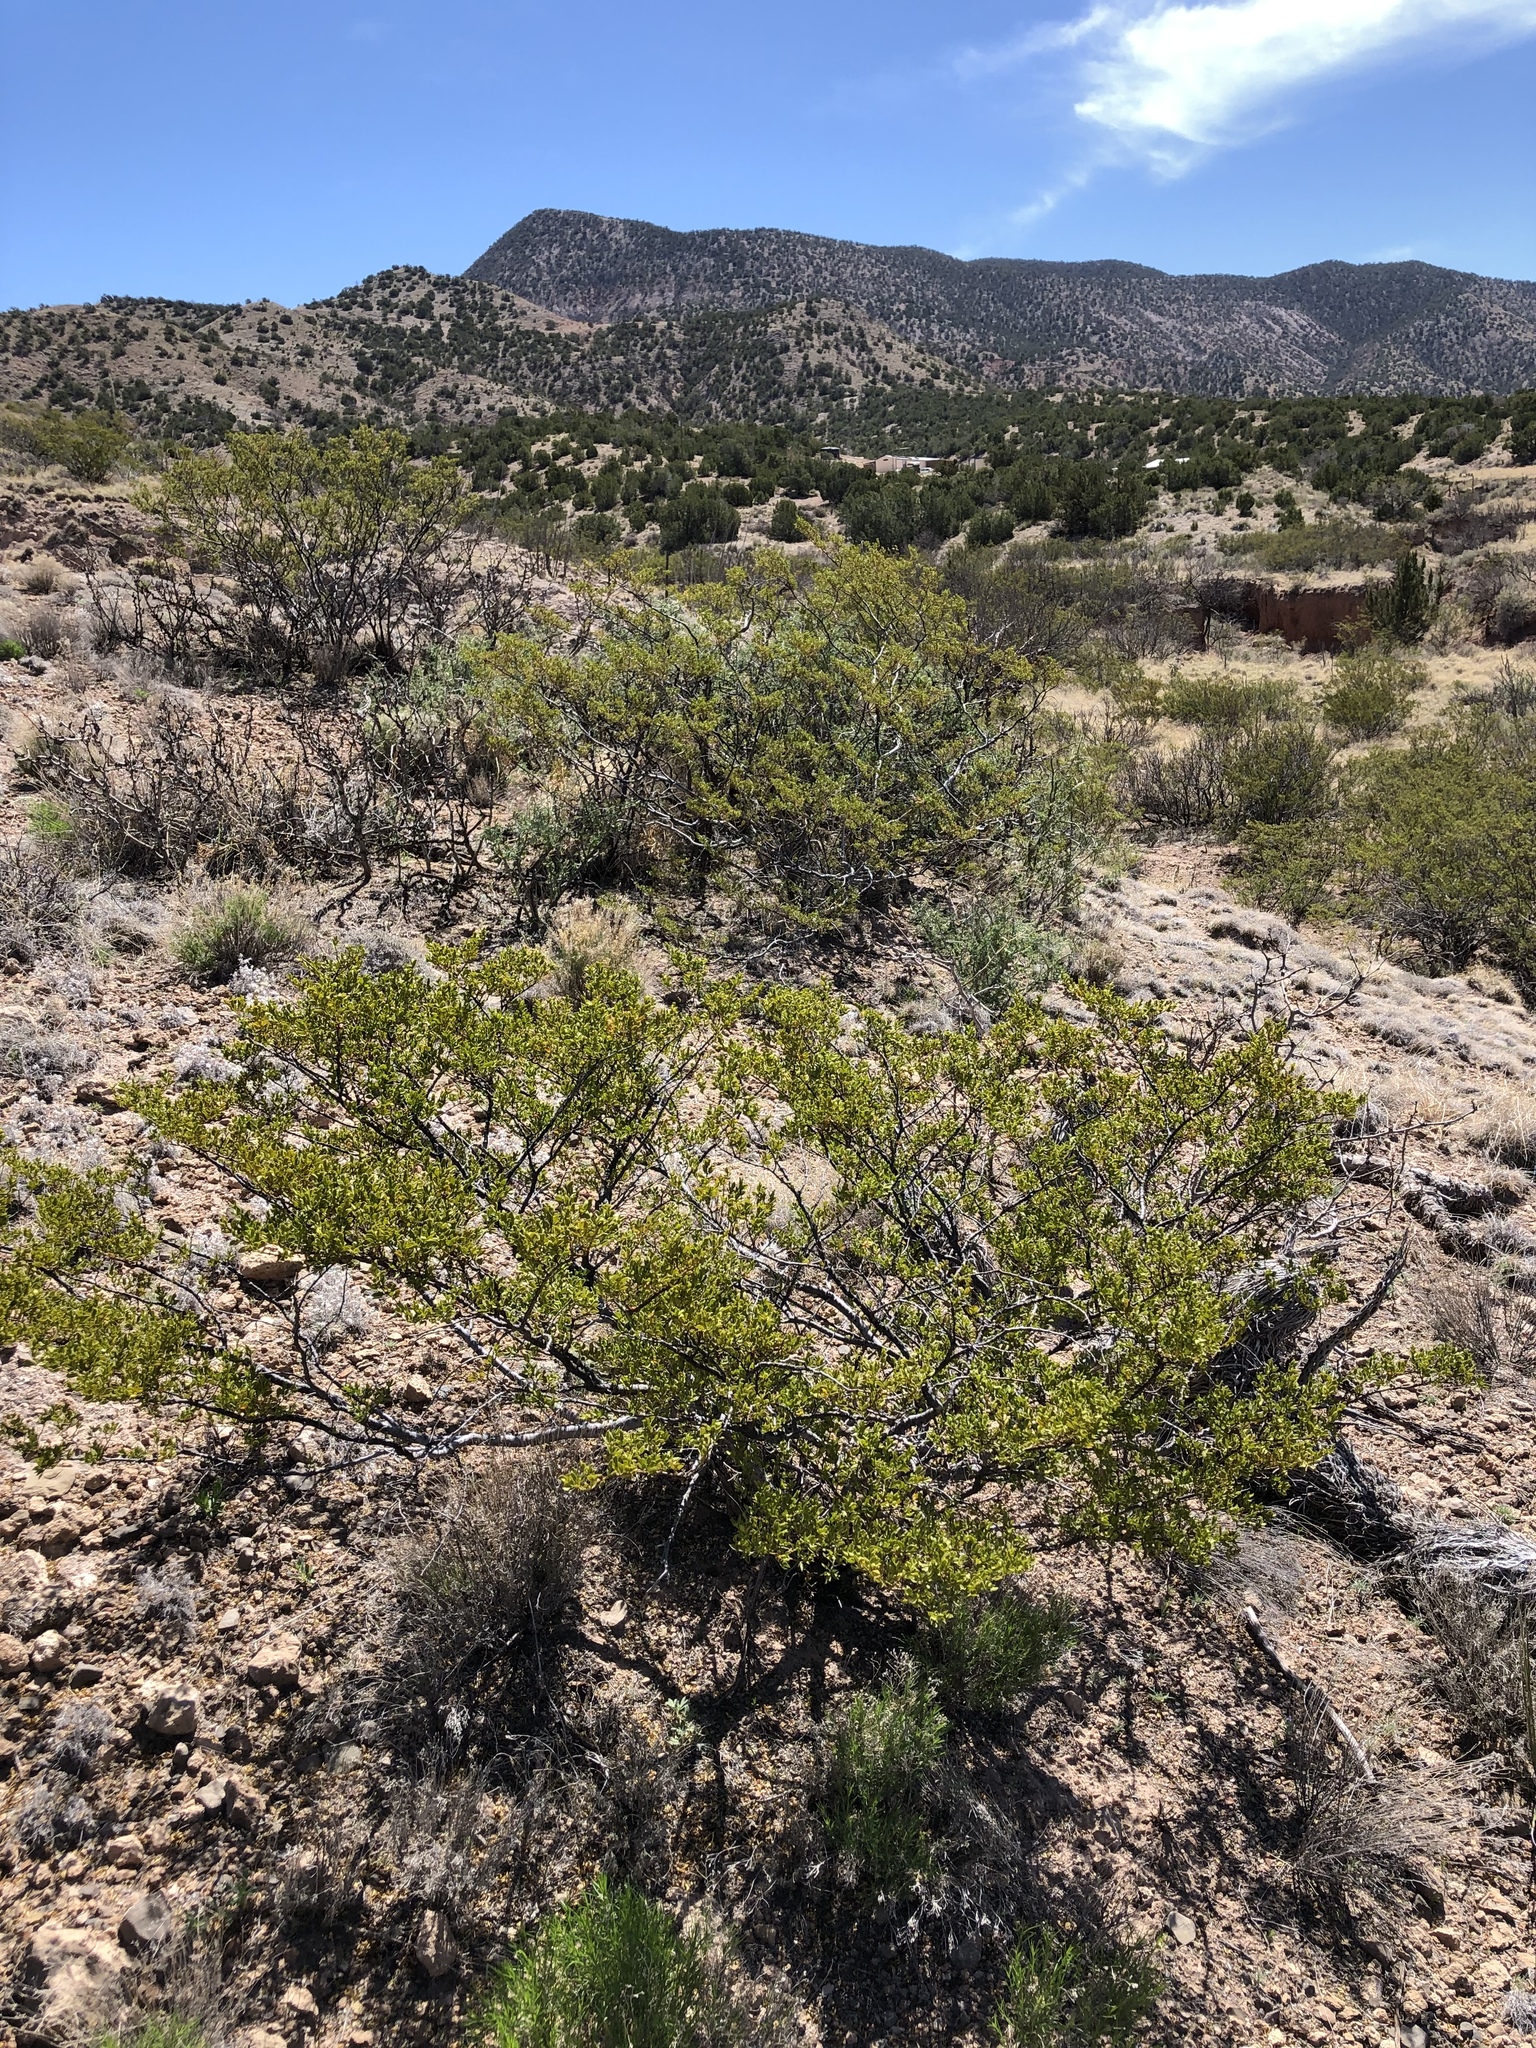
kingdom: Plantae
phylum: Tracheophyta
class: Magnoliopsida
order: Zygophyllales
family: Zygophyllaceae
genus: Larrea
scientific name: Larrea tridentata
